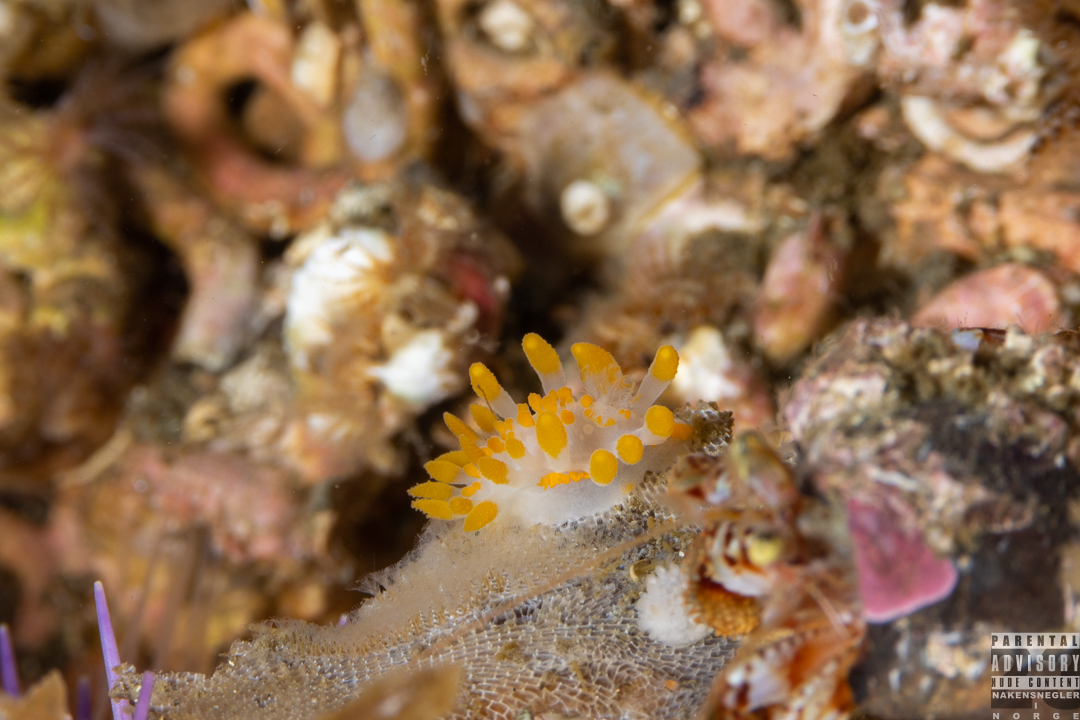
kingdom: Animalia
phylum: Mollusca
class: Gastropoda
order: Nudibranchia
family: Polyceridae
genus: Limacia
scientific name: Limacia clavigera
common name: Orange-clubbed sea slug
